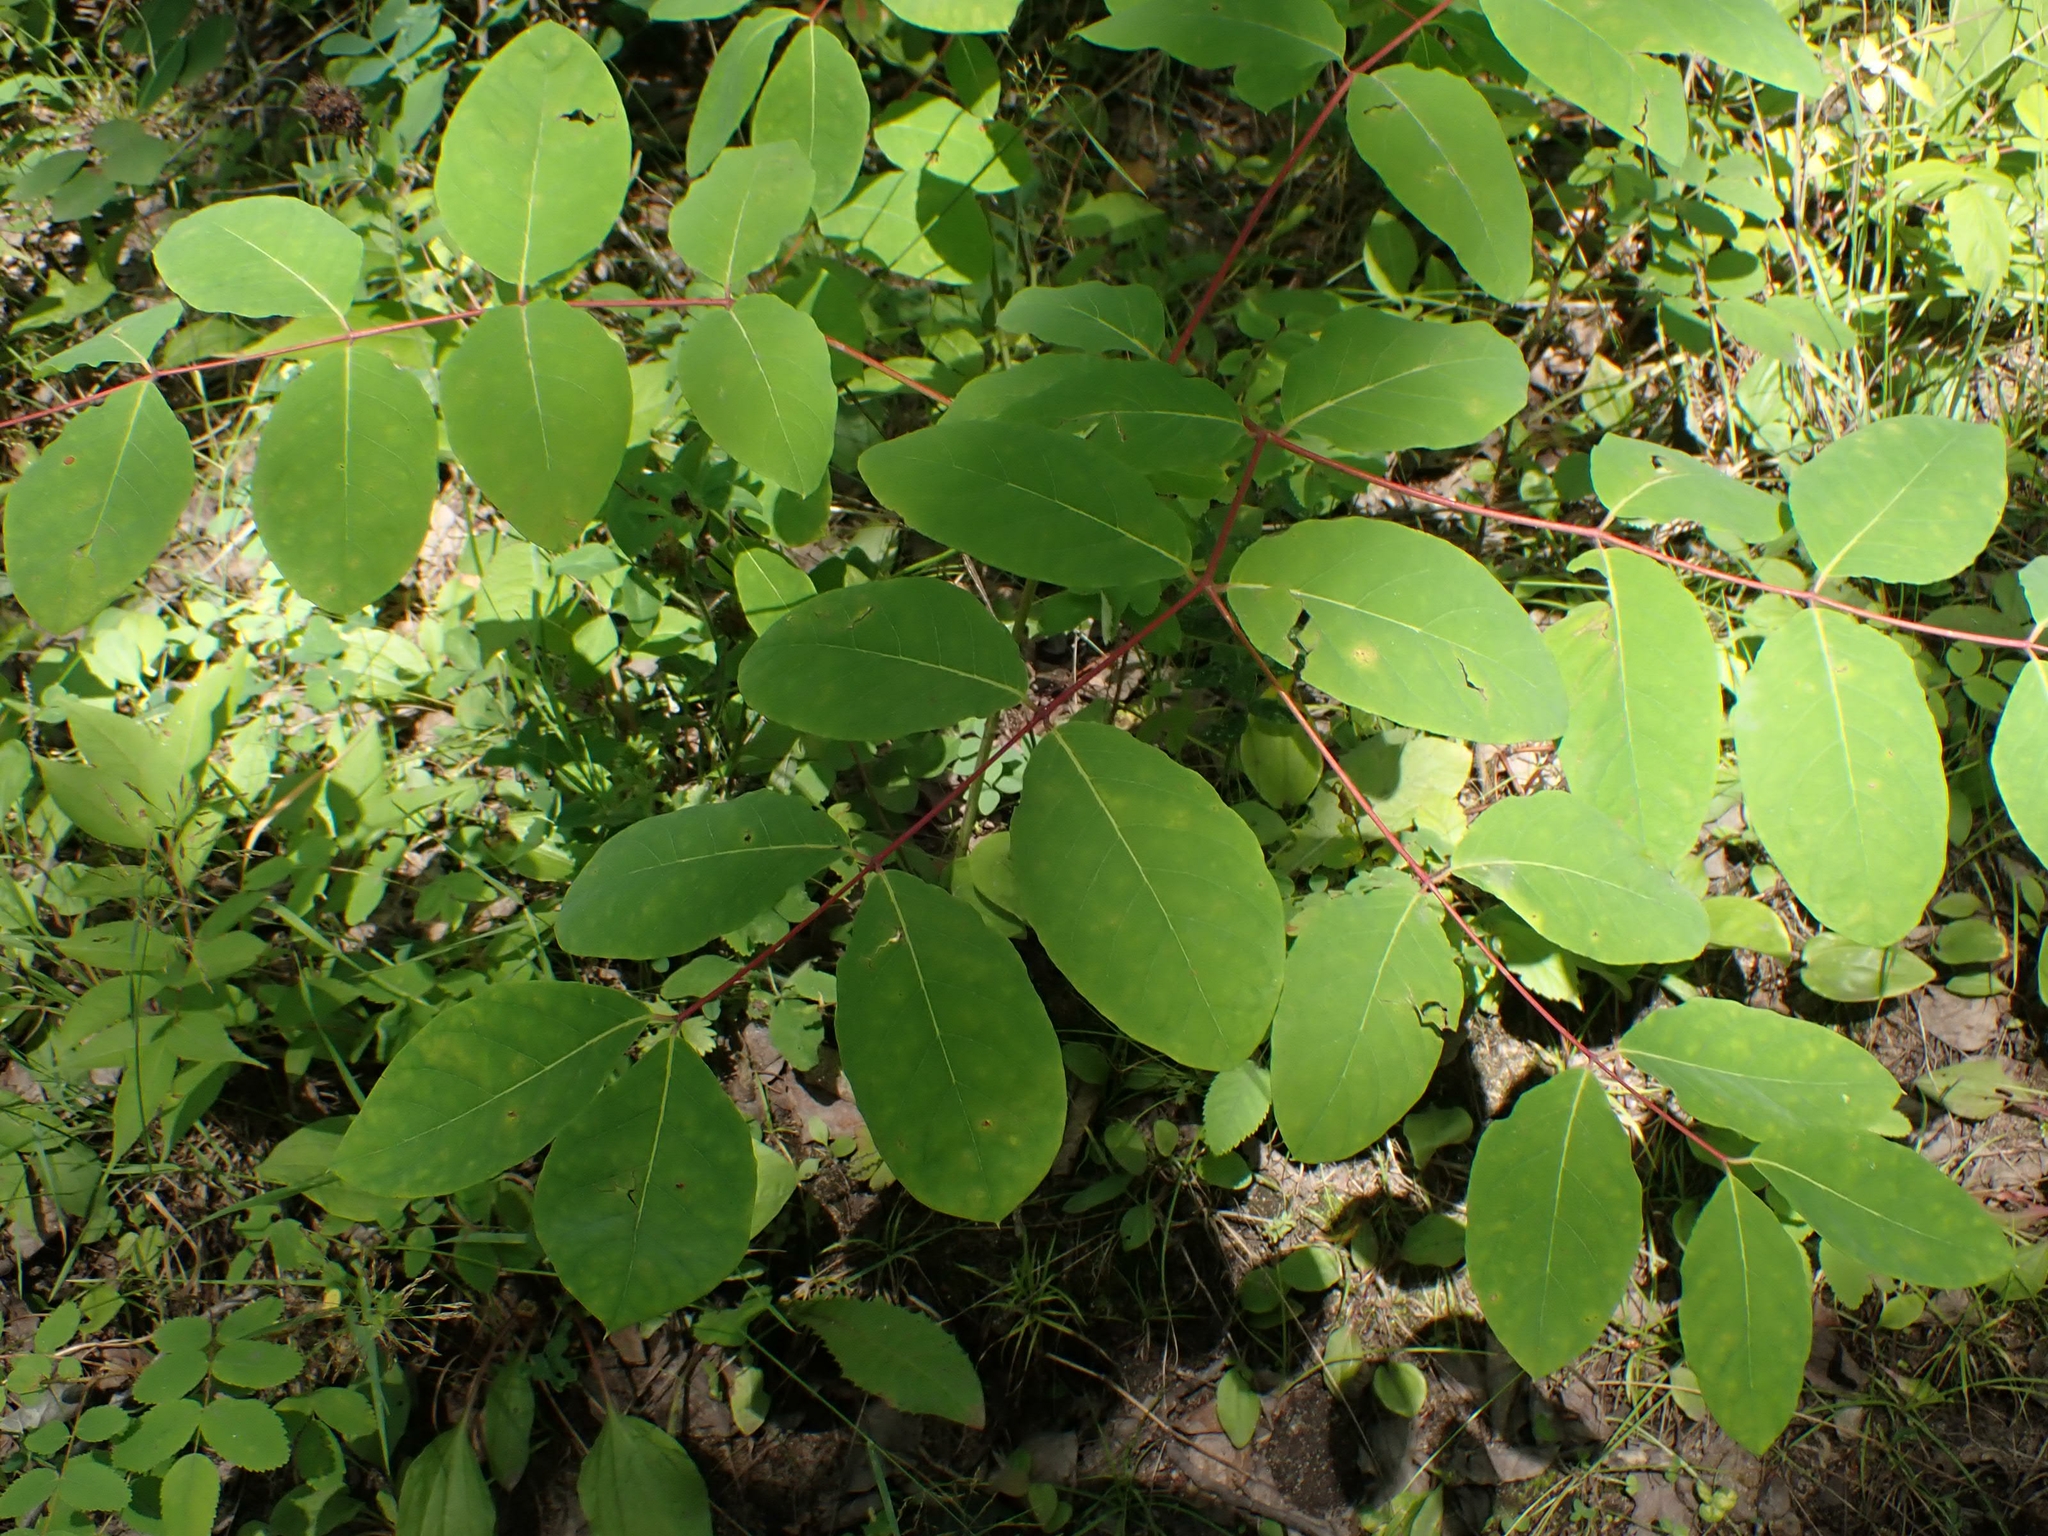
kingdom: Plantae
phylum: Tracheophyta
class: Magnoliopsida
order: Gentianales
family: Apocynaceae
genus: Apocynum
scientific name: Apocynum androsaemifolium
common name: Spreading dogbane
